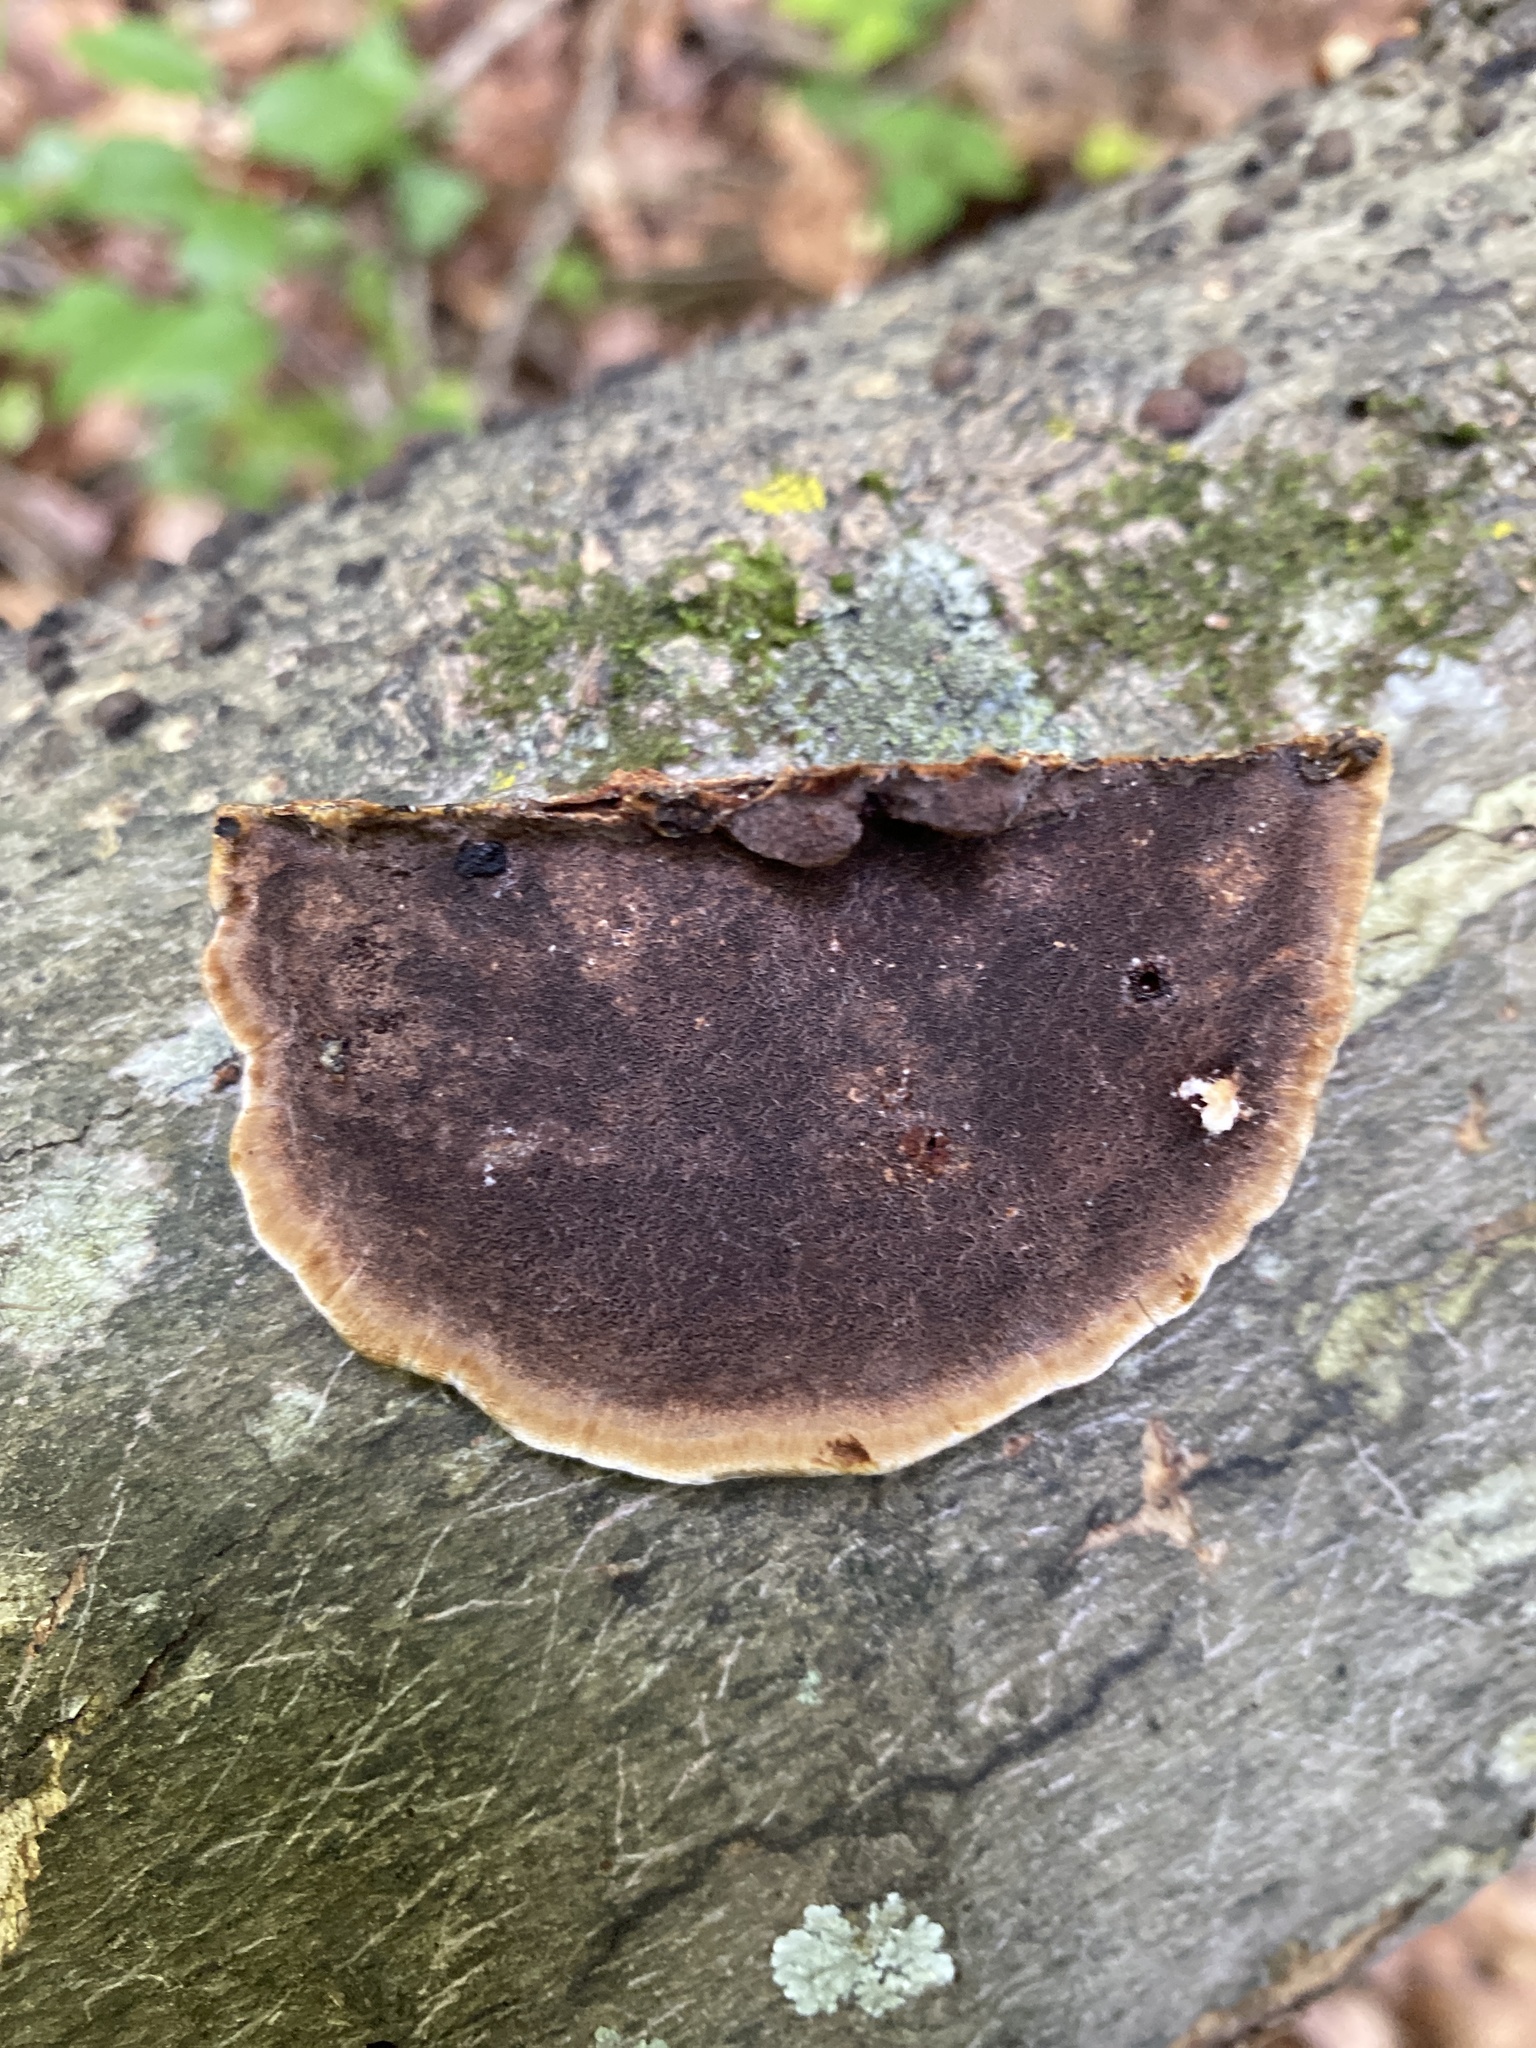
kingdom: Fungi
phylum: Basidiomycota
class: Agaricomycetes
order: Hymenochaetales
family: Hymenochaetaceae
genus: Phellinus
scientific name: Phellinus gilvus
